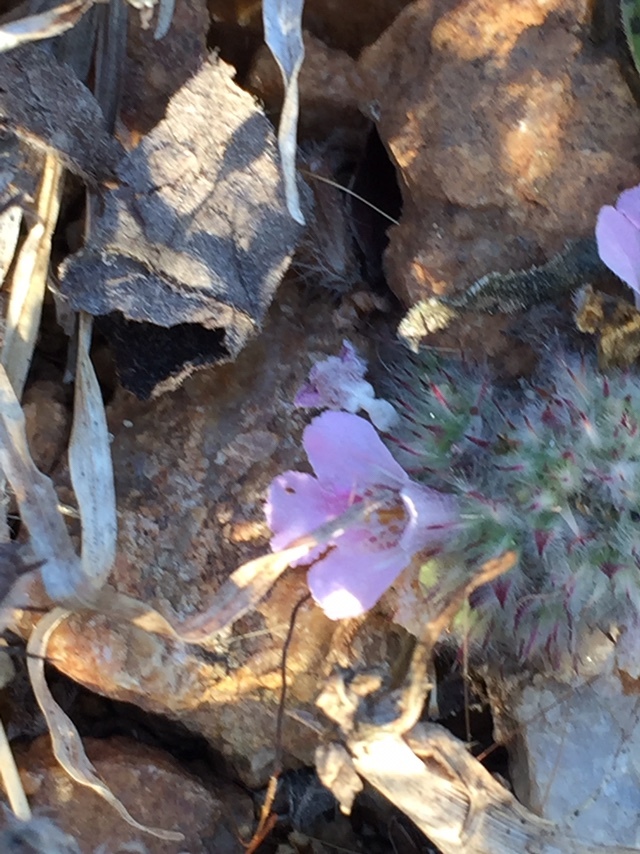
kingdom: Plantae
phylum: Tracheophyta
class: Magnoliopsida
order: Lamiales
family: Acanthaceae
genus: Lepidagathis
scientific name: Lepidagathis cristata
